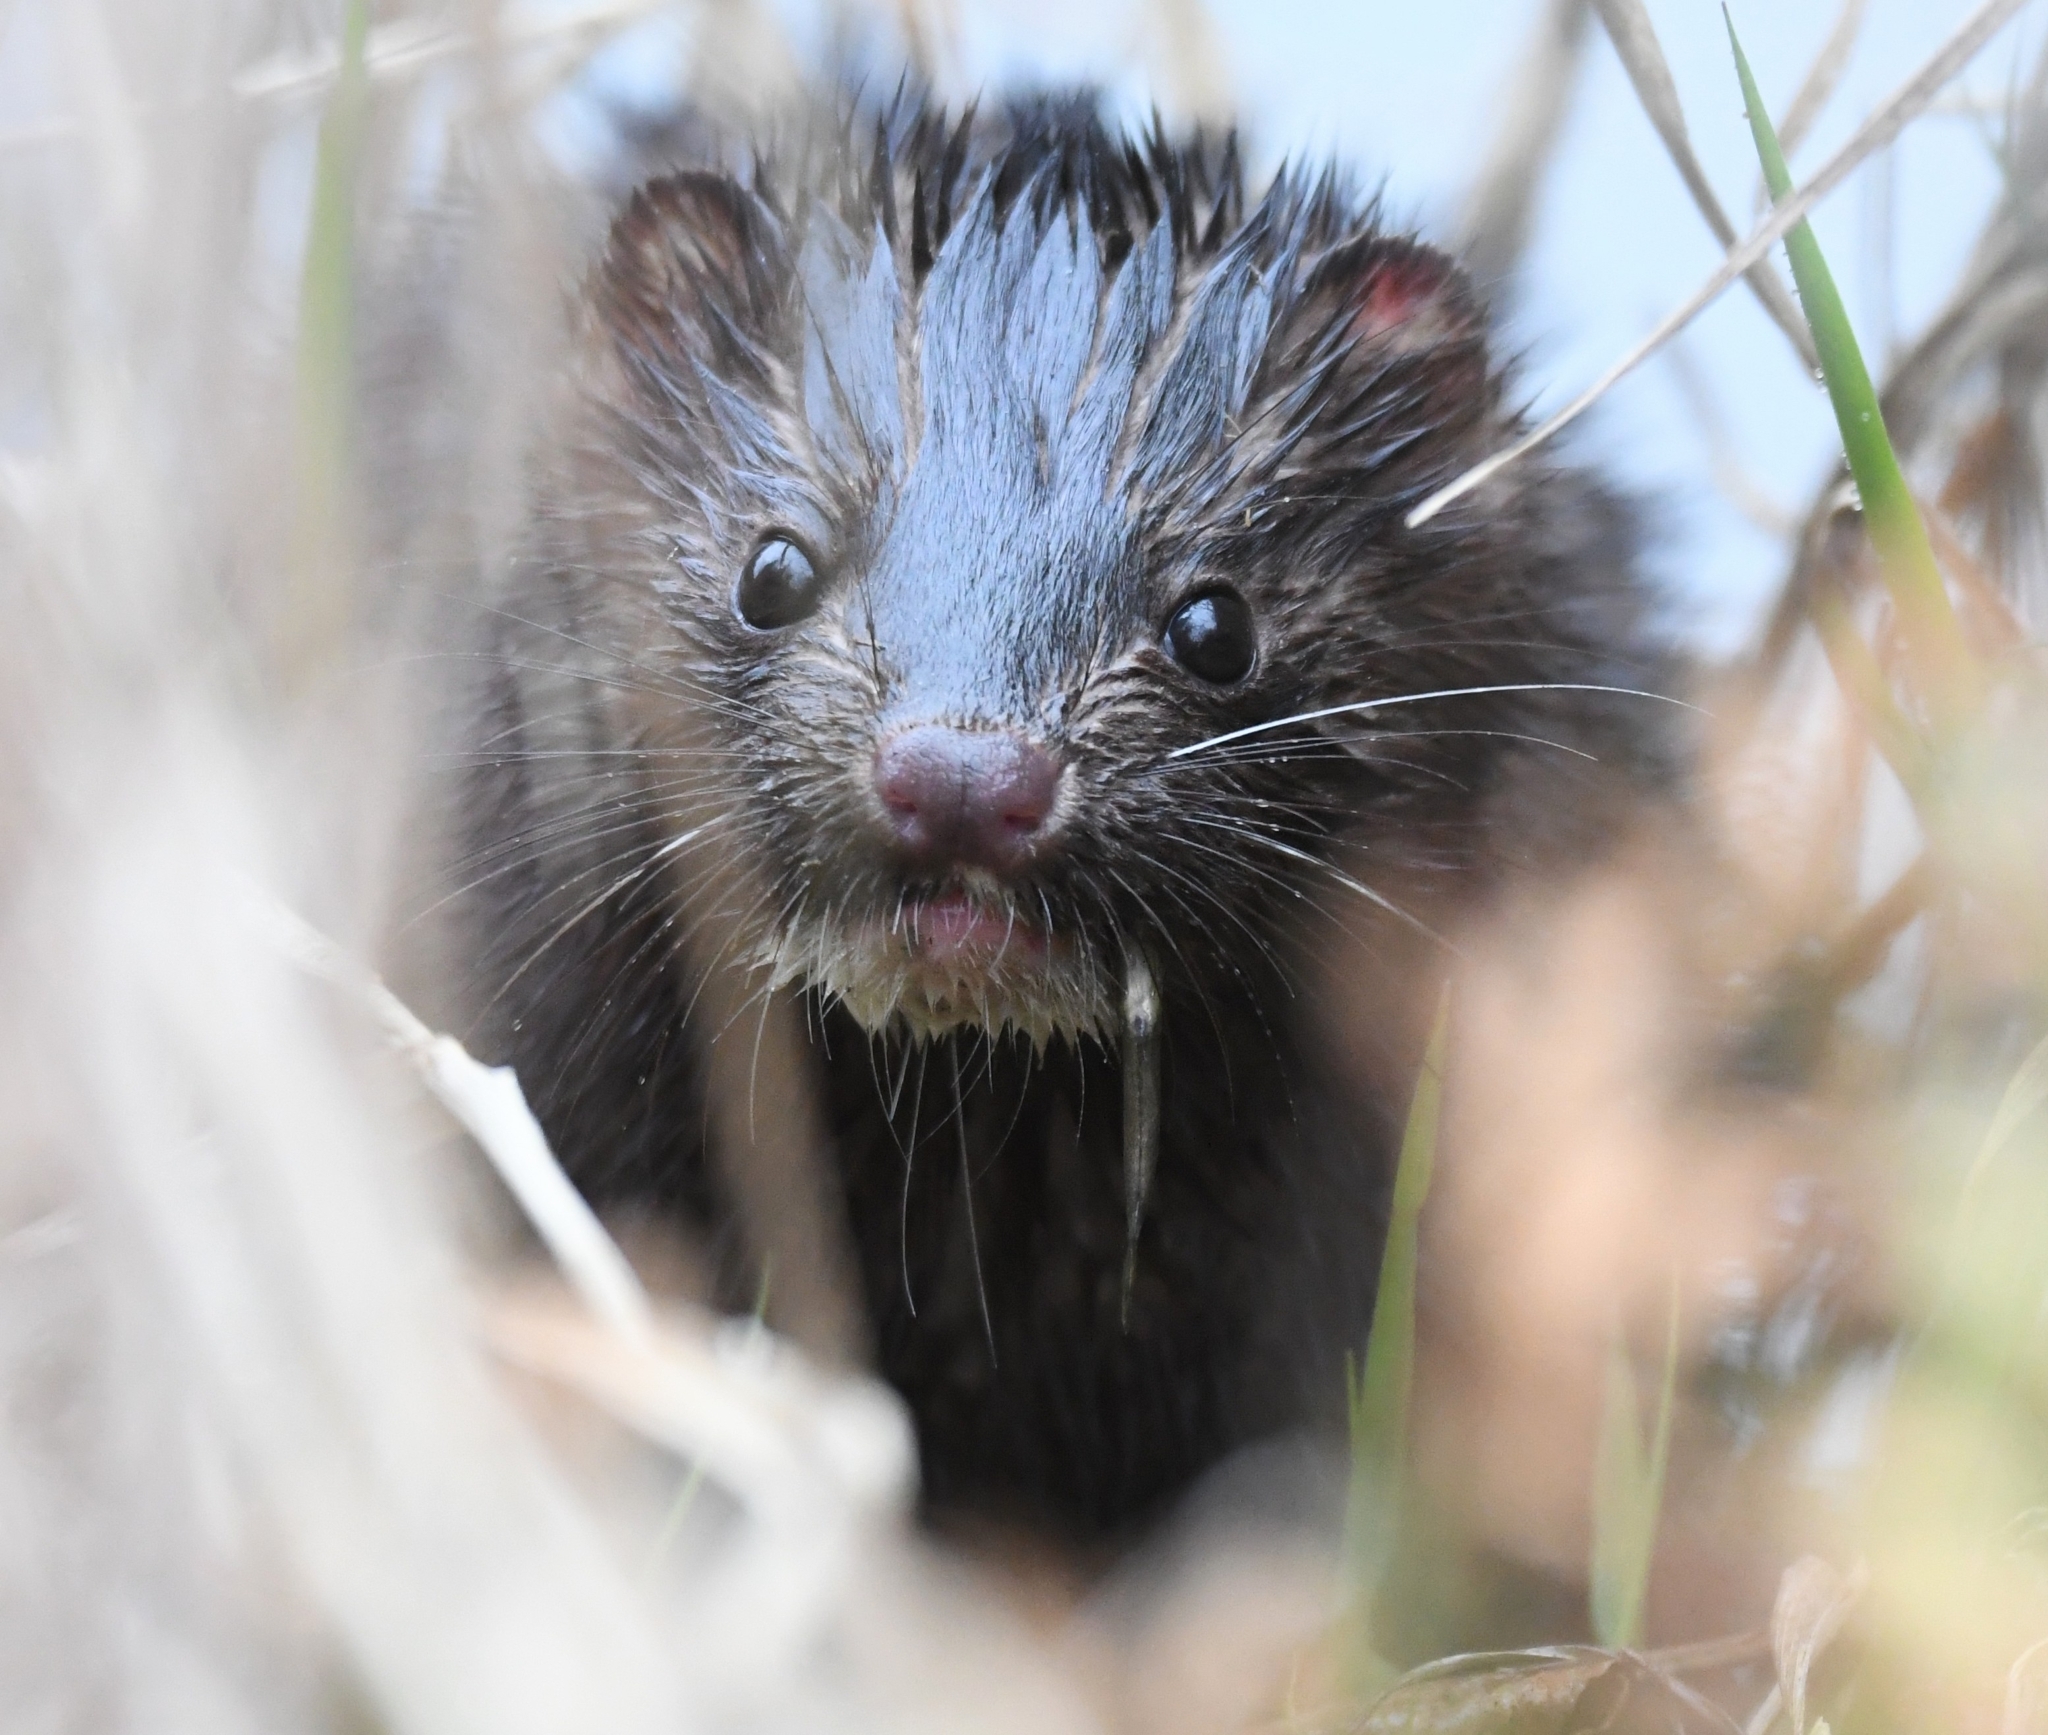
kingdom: Animalia
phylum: Chordata
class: Mammalia
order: Carnivora
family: Mustelidae
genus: Mustela
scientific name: Mustela
